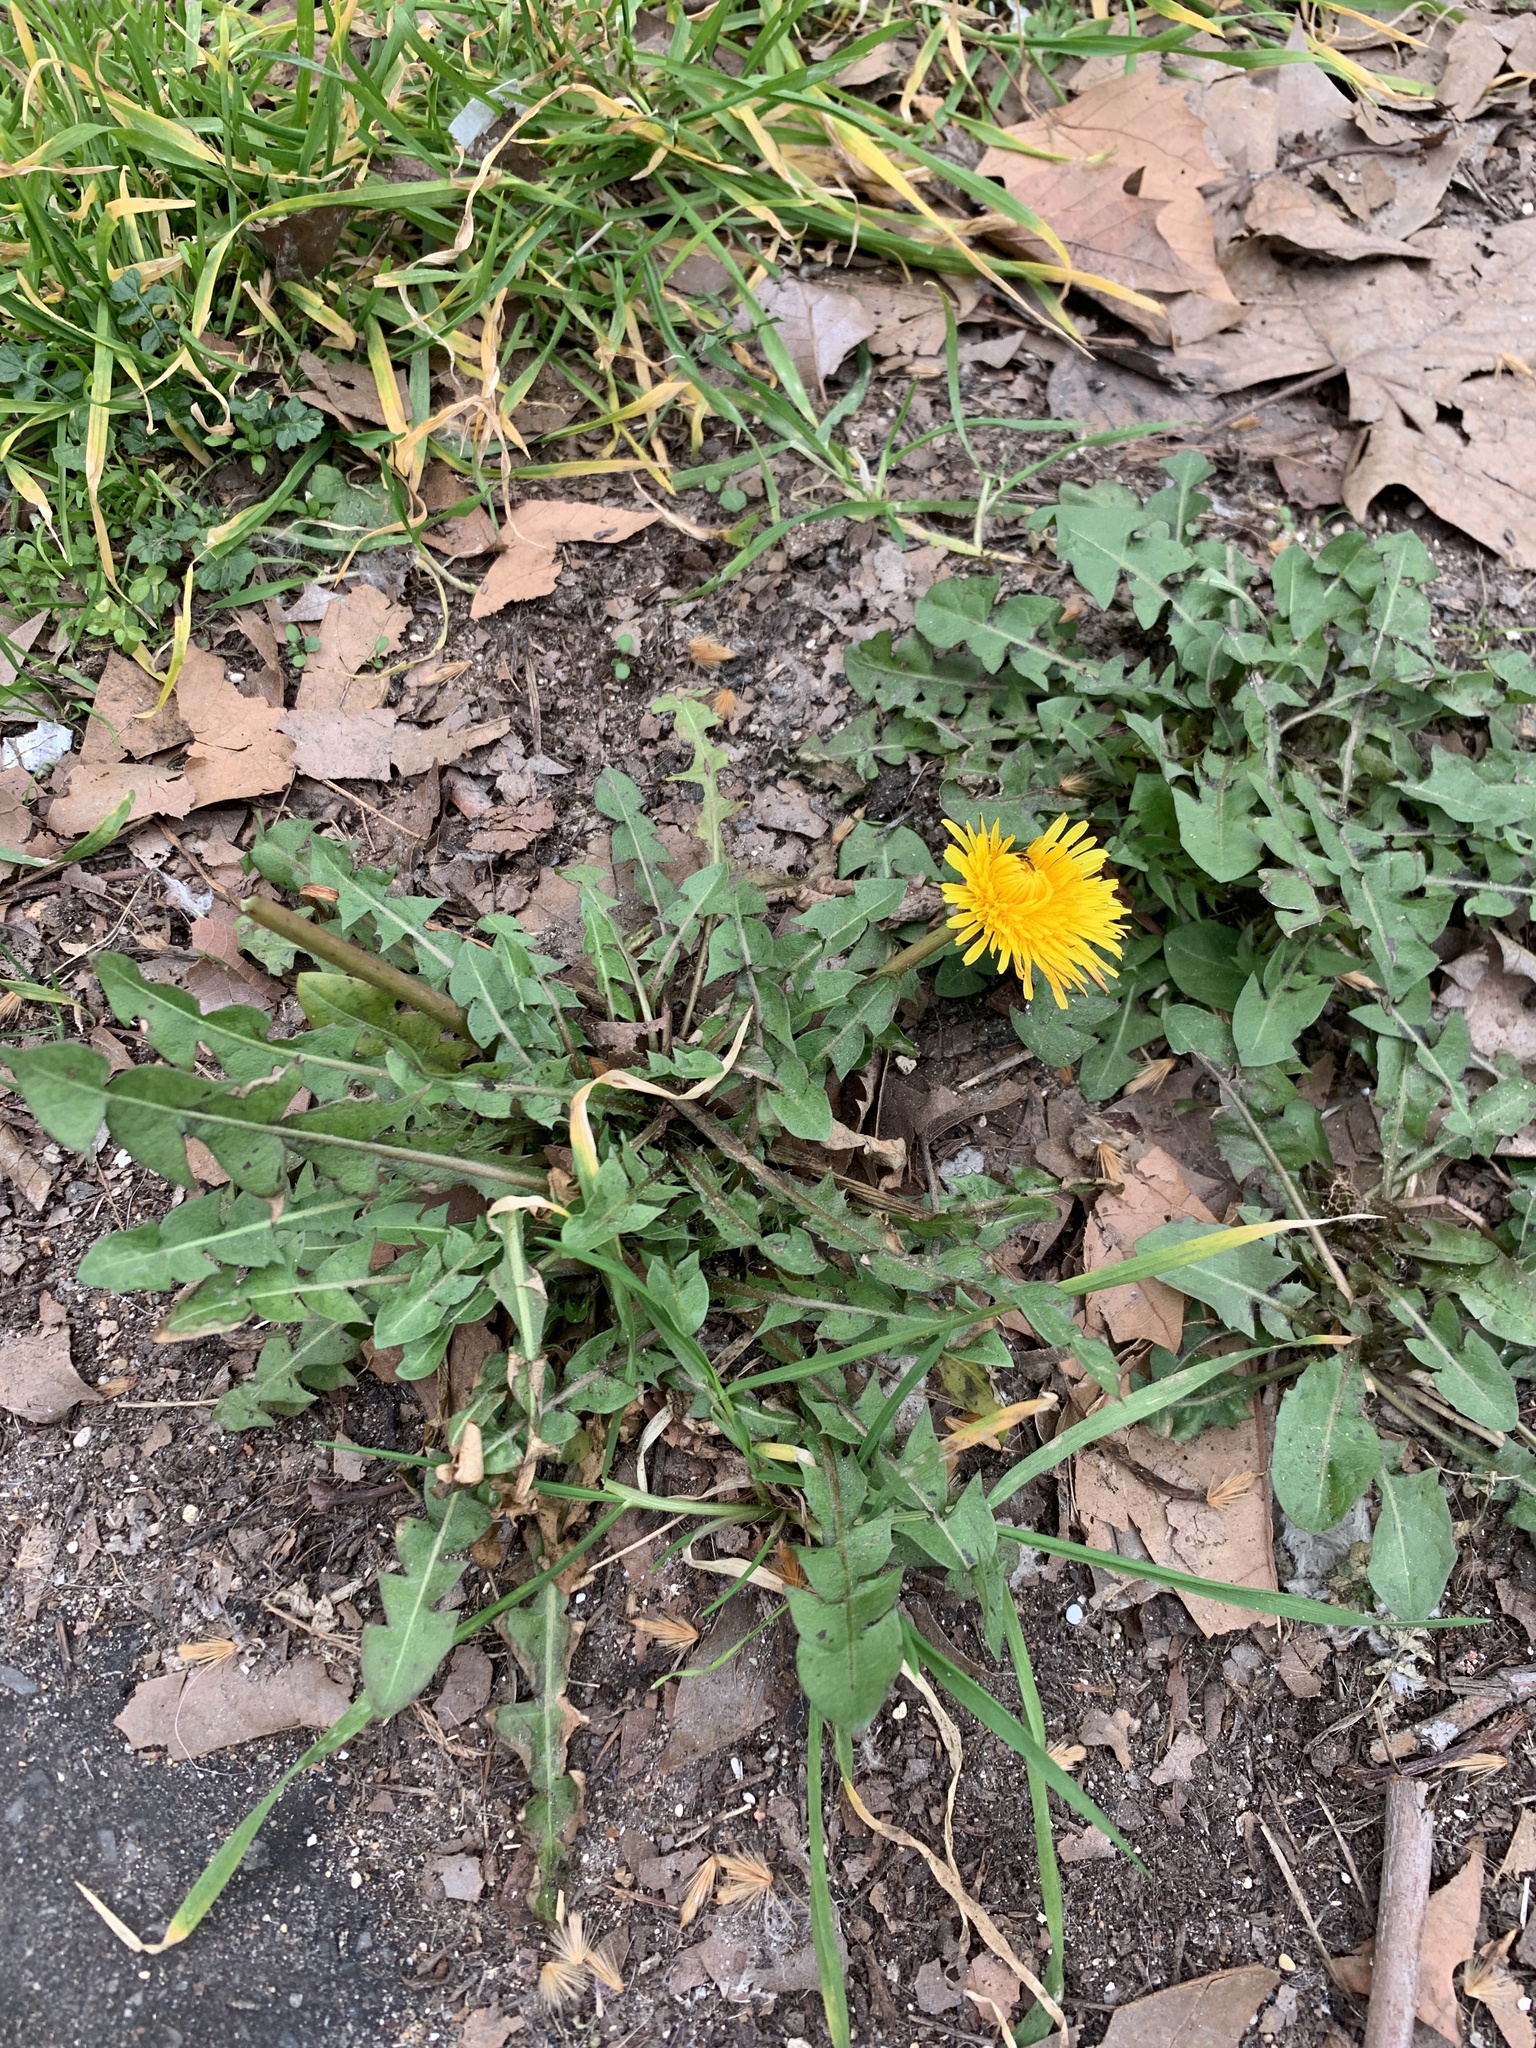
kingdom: Plantae
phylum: Tracheophyta
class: Magnoliopsida
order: Asterales
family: Asteraceae
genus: Taraxacum
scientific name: Taraxacum officinale
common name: Common dandelion
